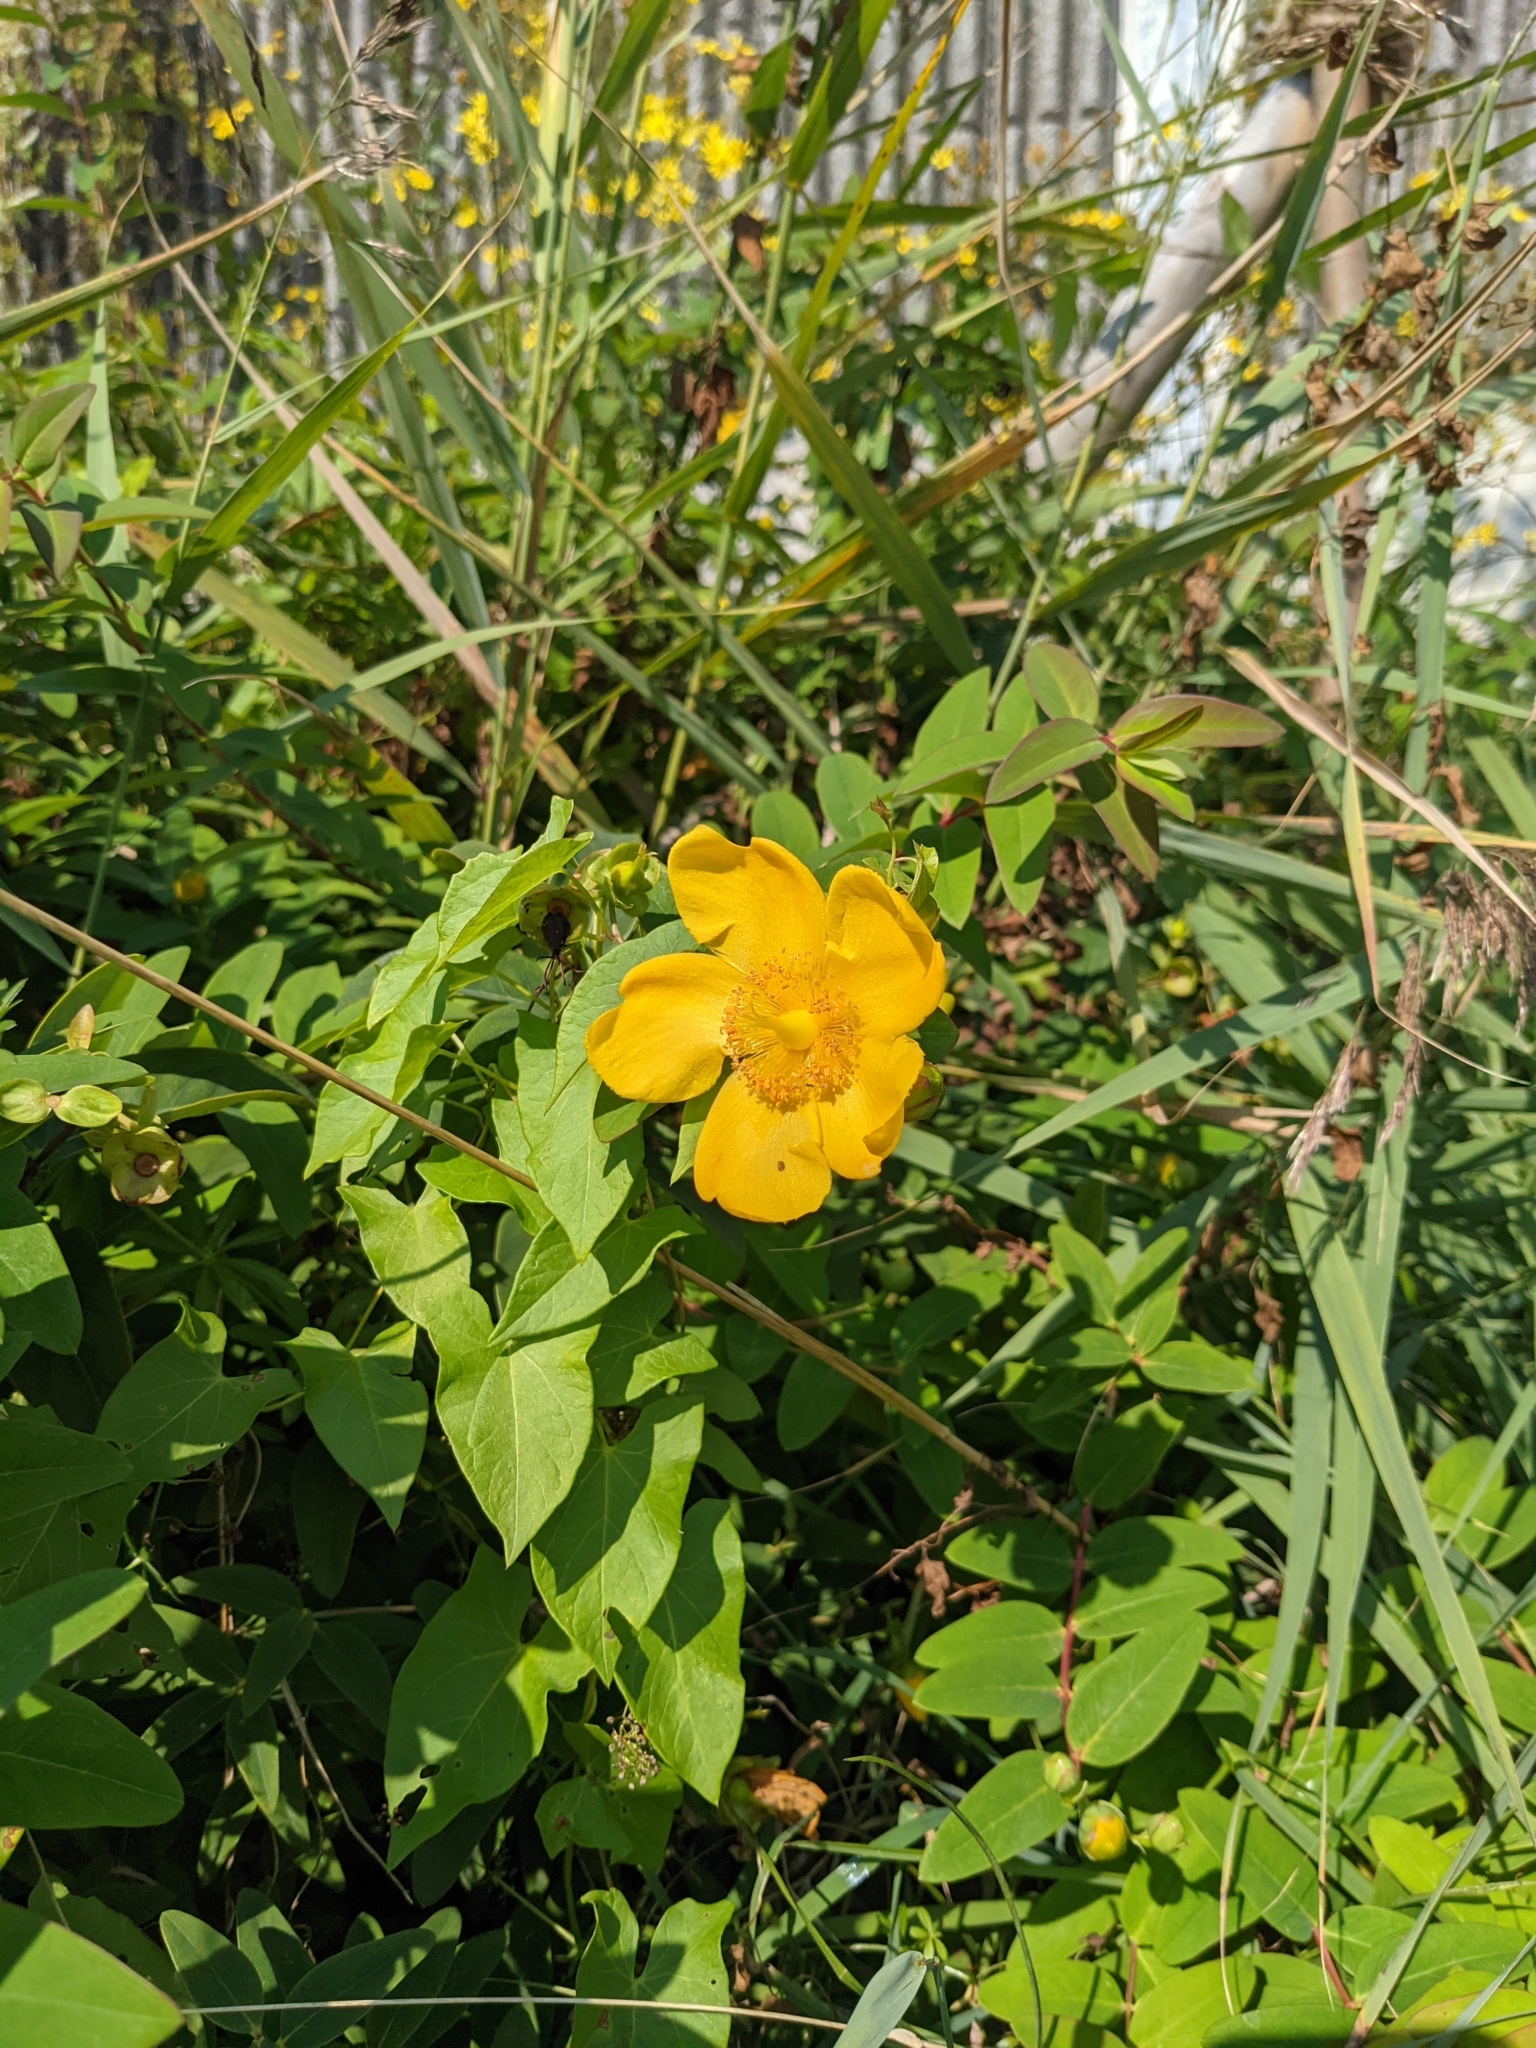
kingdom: Plantae
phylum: Tracheophyta
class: Magnoliopsida
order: Malpighiales
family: Hypericaceae
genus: Hypericum
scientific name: Hypericum moserianum
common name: Goldflower
